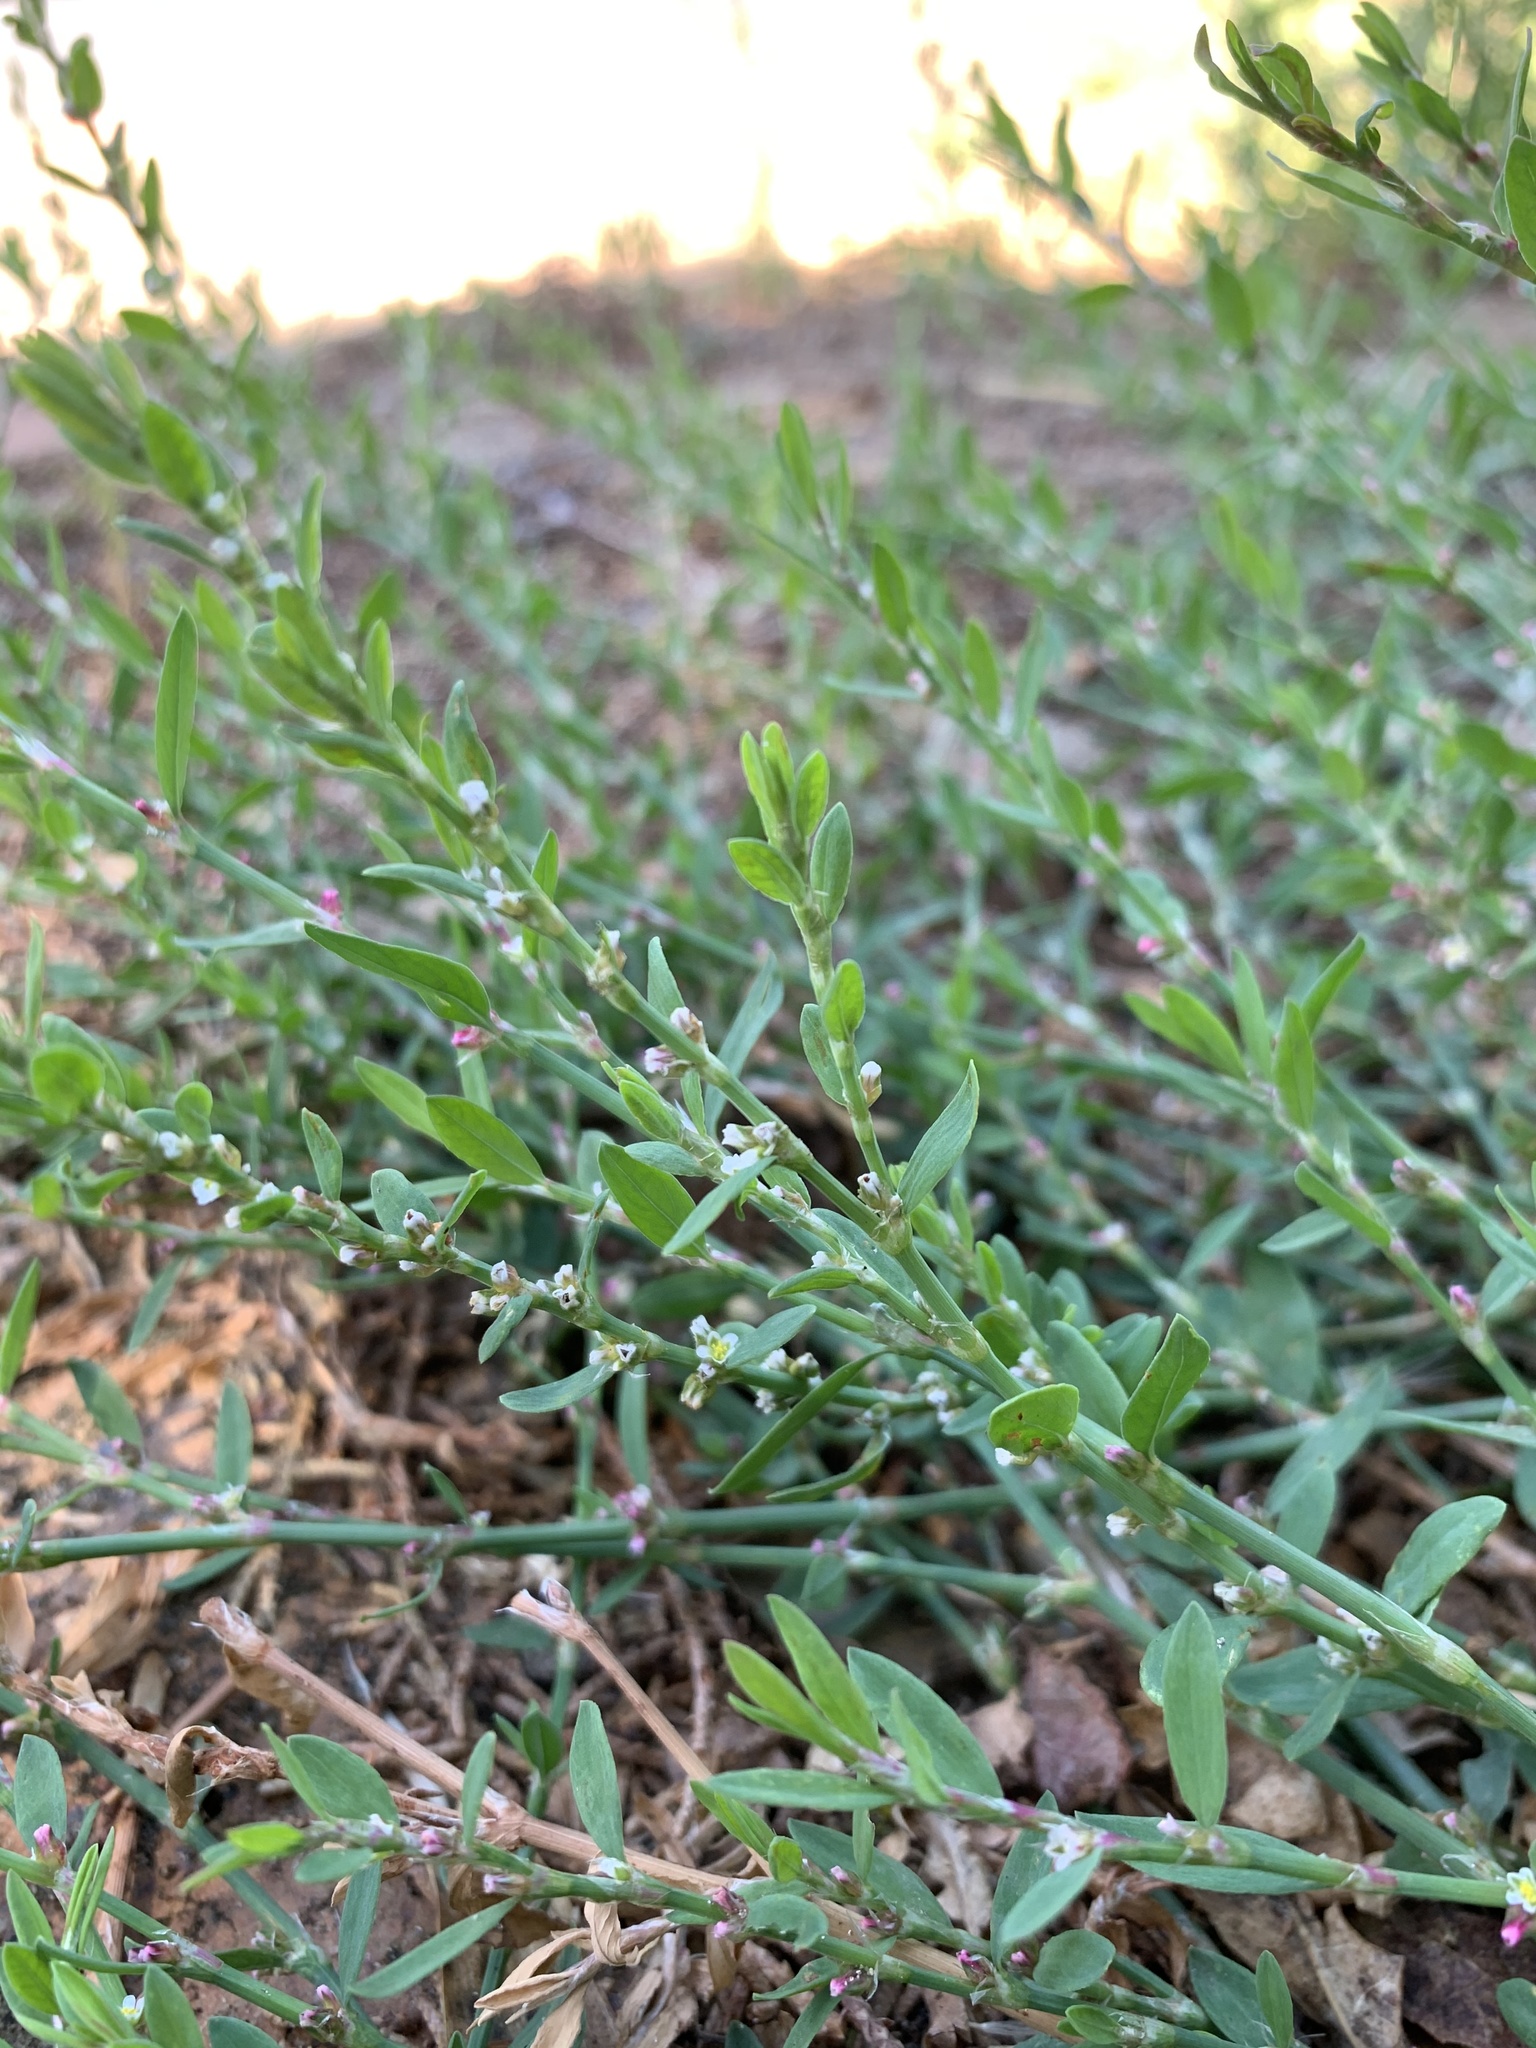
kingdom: Plantae
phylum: Tracheophyta
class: Magnoliopsida
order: Caryophyllales
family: Polygonaceae
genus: Polygonum
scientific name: Polygonum aviculare
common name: Prostrate knotweed
